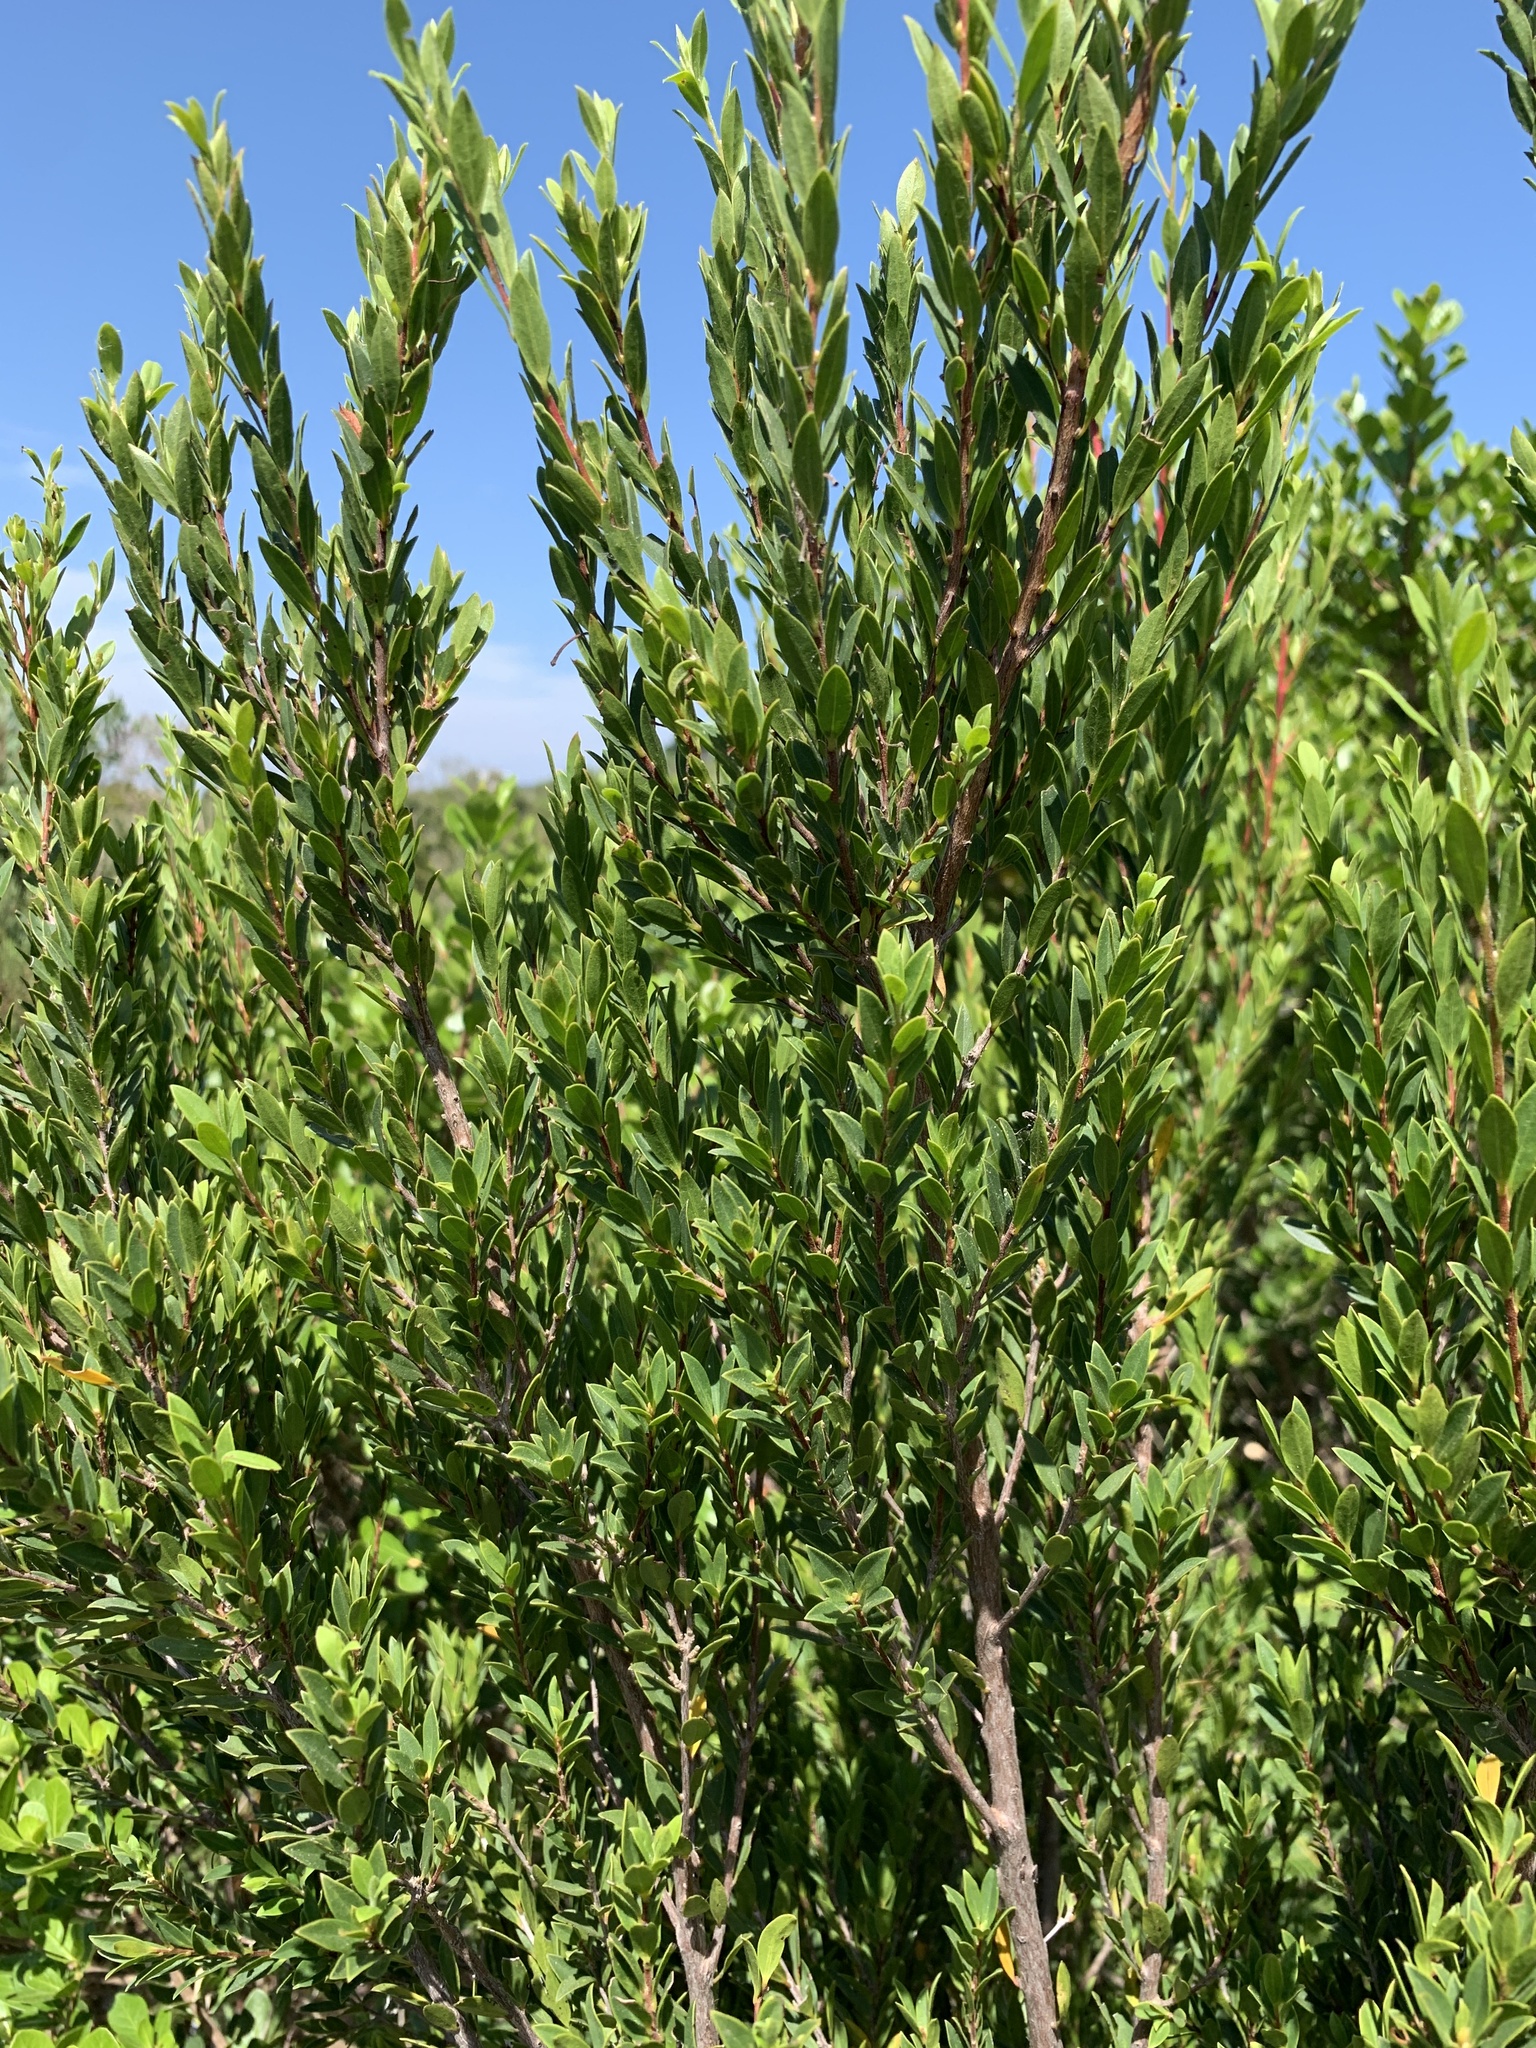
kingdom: Plantae
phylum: Tracheophyta
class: Magnoliopsida
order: Ericales
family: Ebenaceae
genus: Diospyros
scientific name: Diospyros glabra
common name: Fynbos star apple
